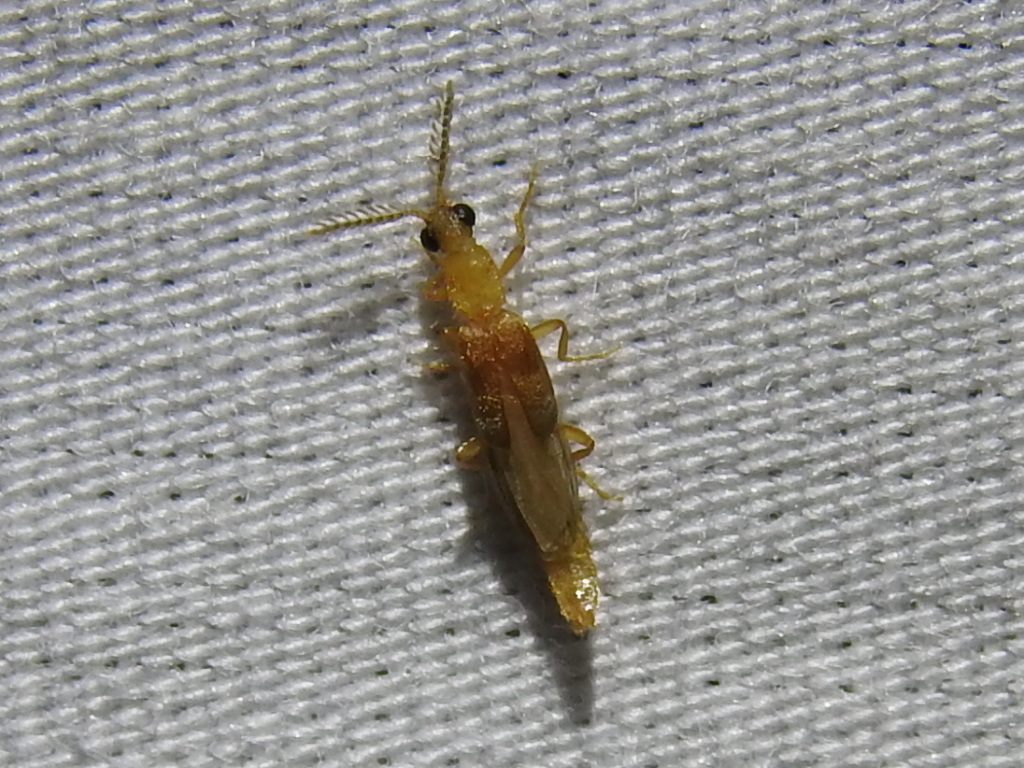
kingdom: Animalia
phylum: Arthropoda
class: Insecta
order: Coleoptera
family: Phengodidae
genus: Cenophengus
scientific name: Cenophengus pallidus
